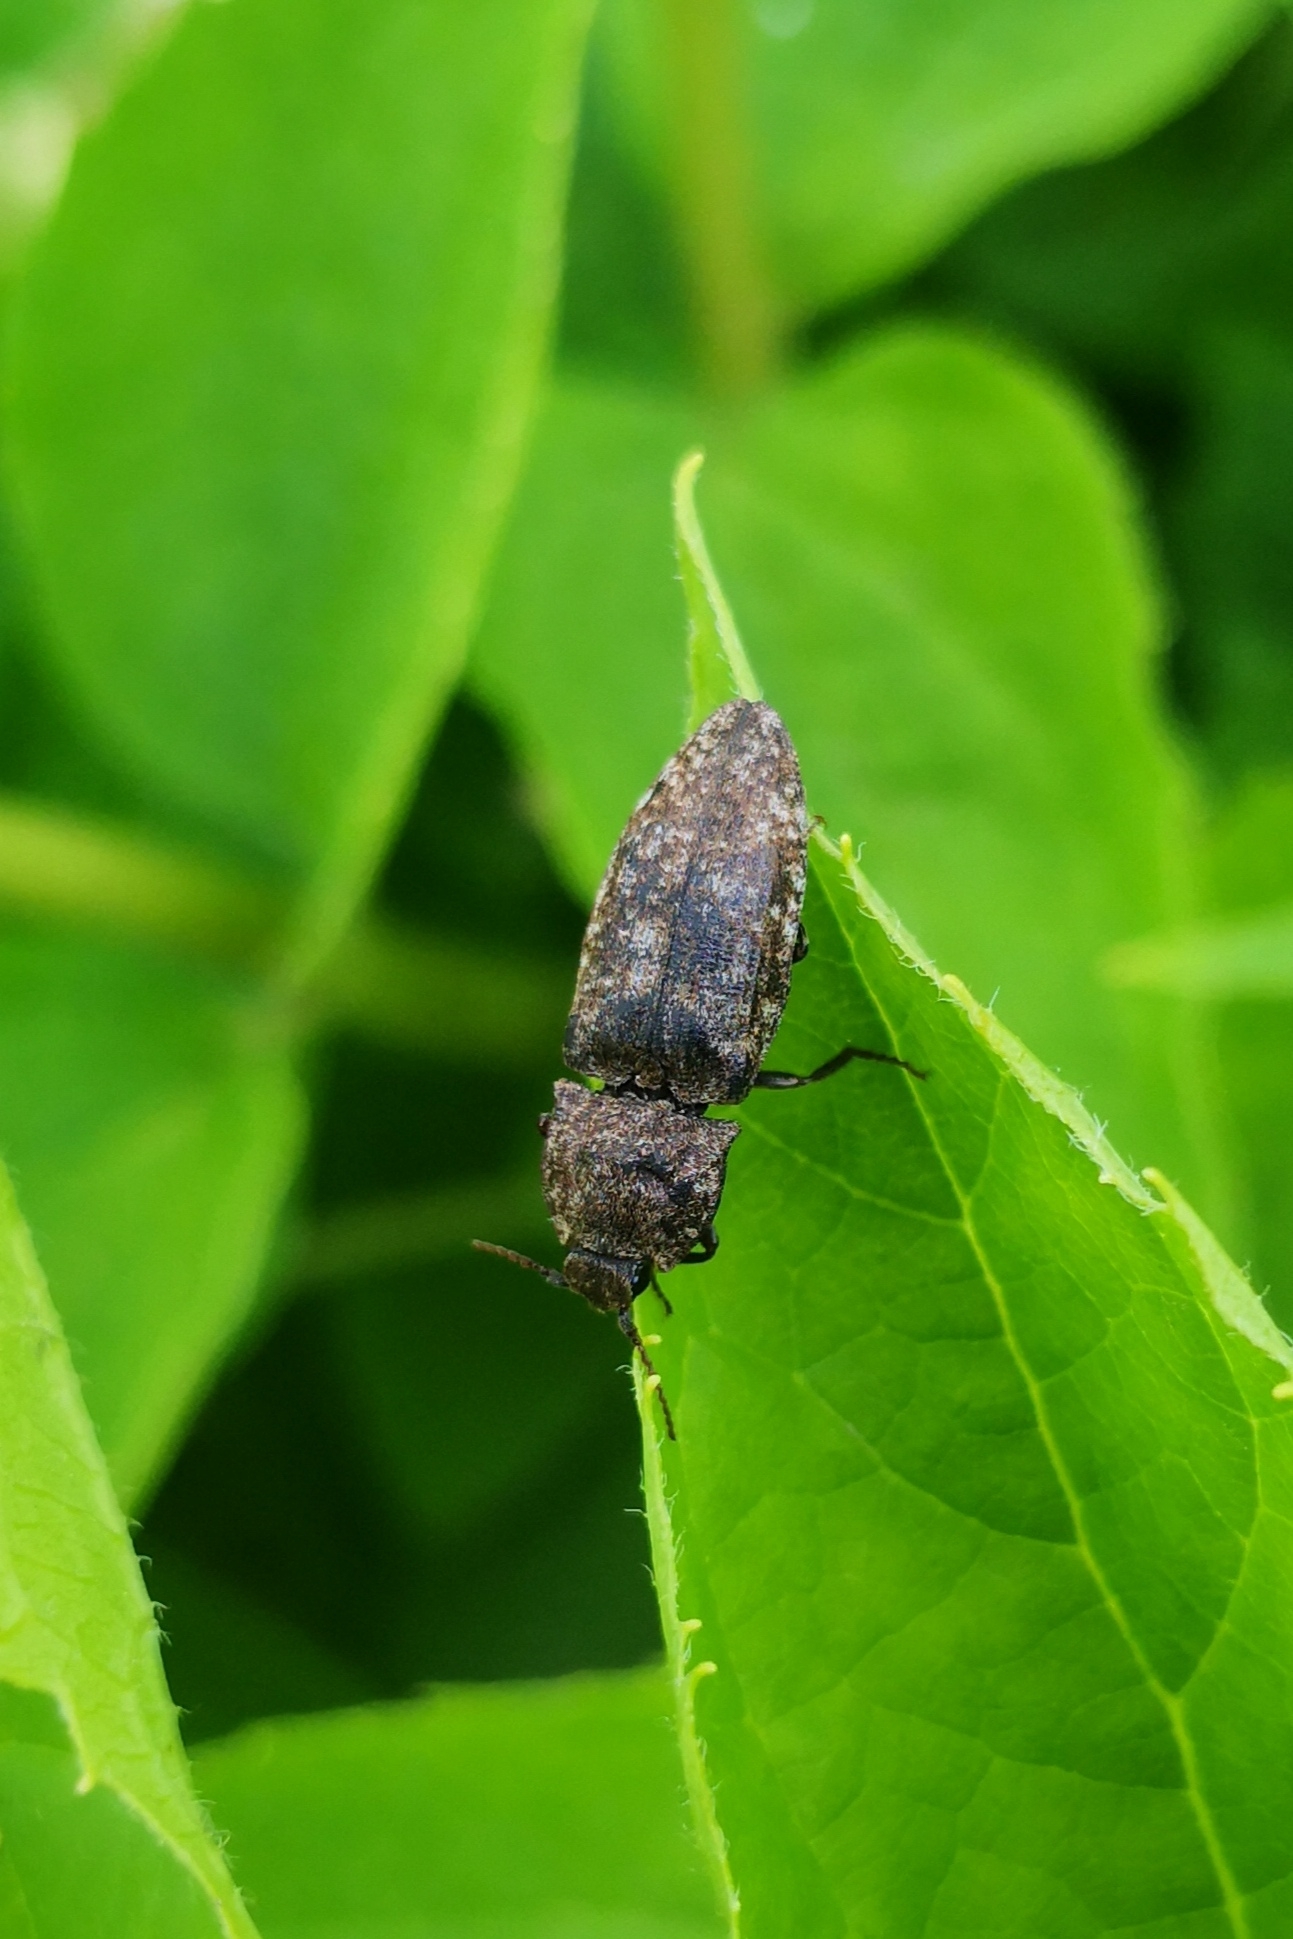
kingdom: Animalia
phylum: Arthropoda
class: Insecta
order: Coleoptera
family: Elateridae
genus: Agrypnus
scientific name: Agrypnus murinus
